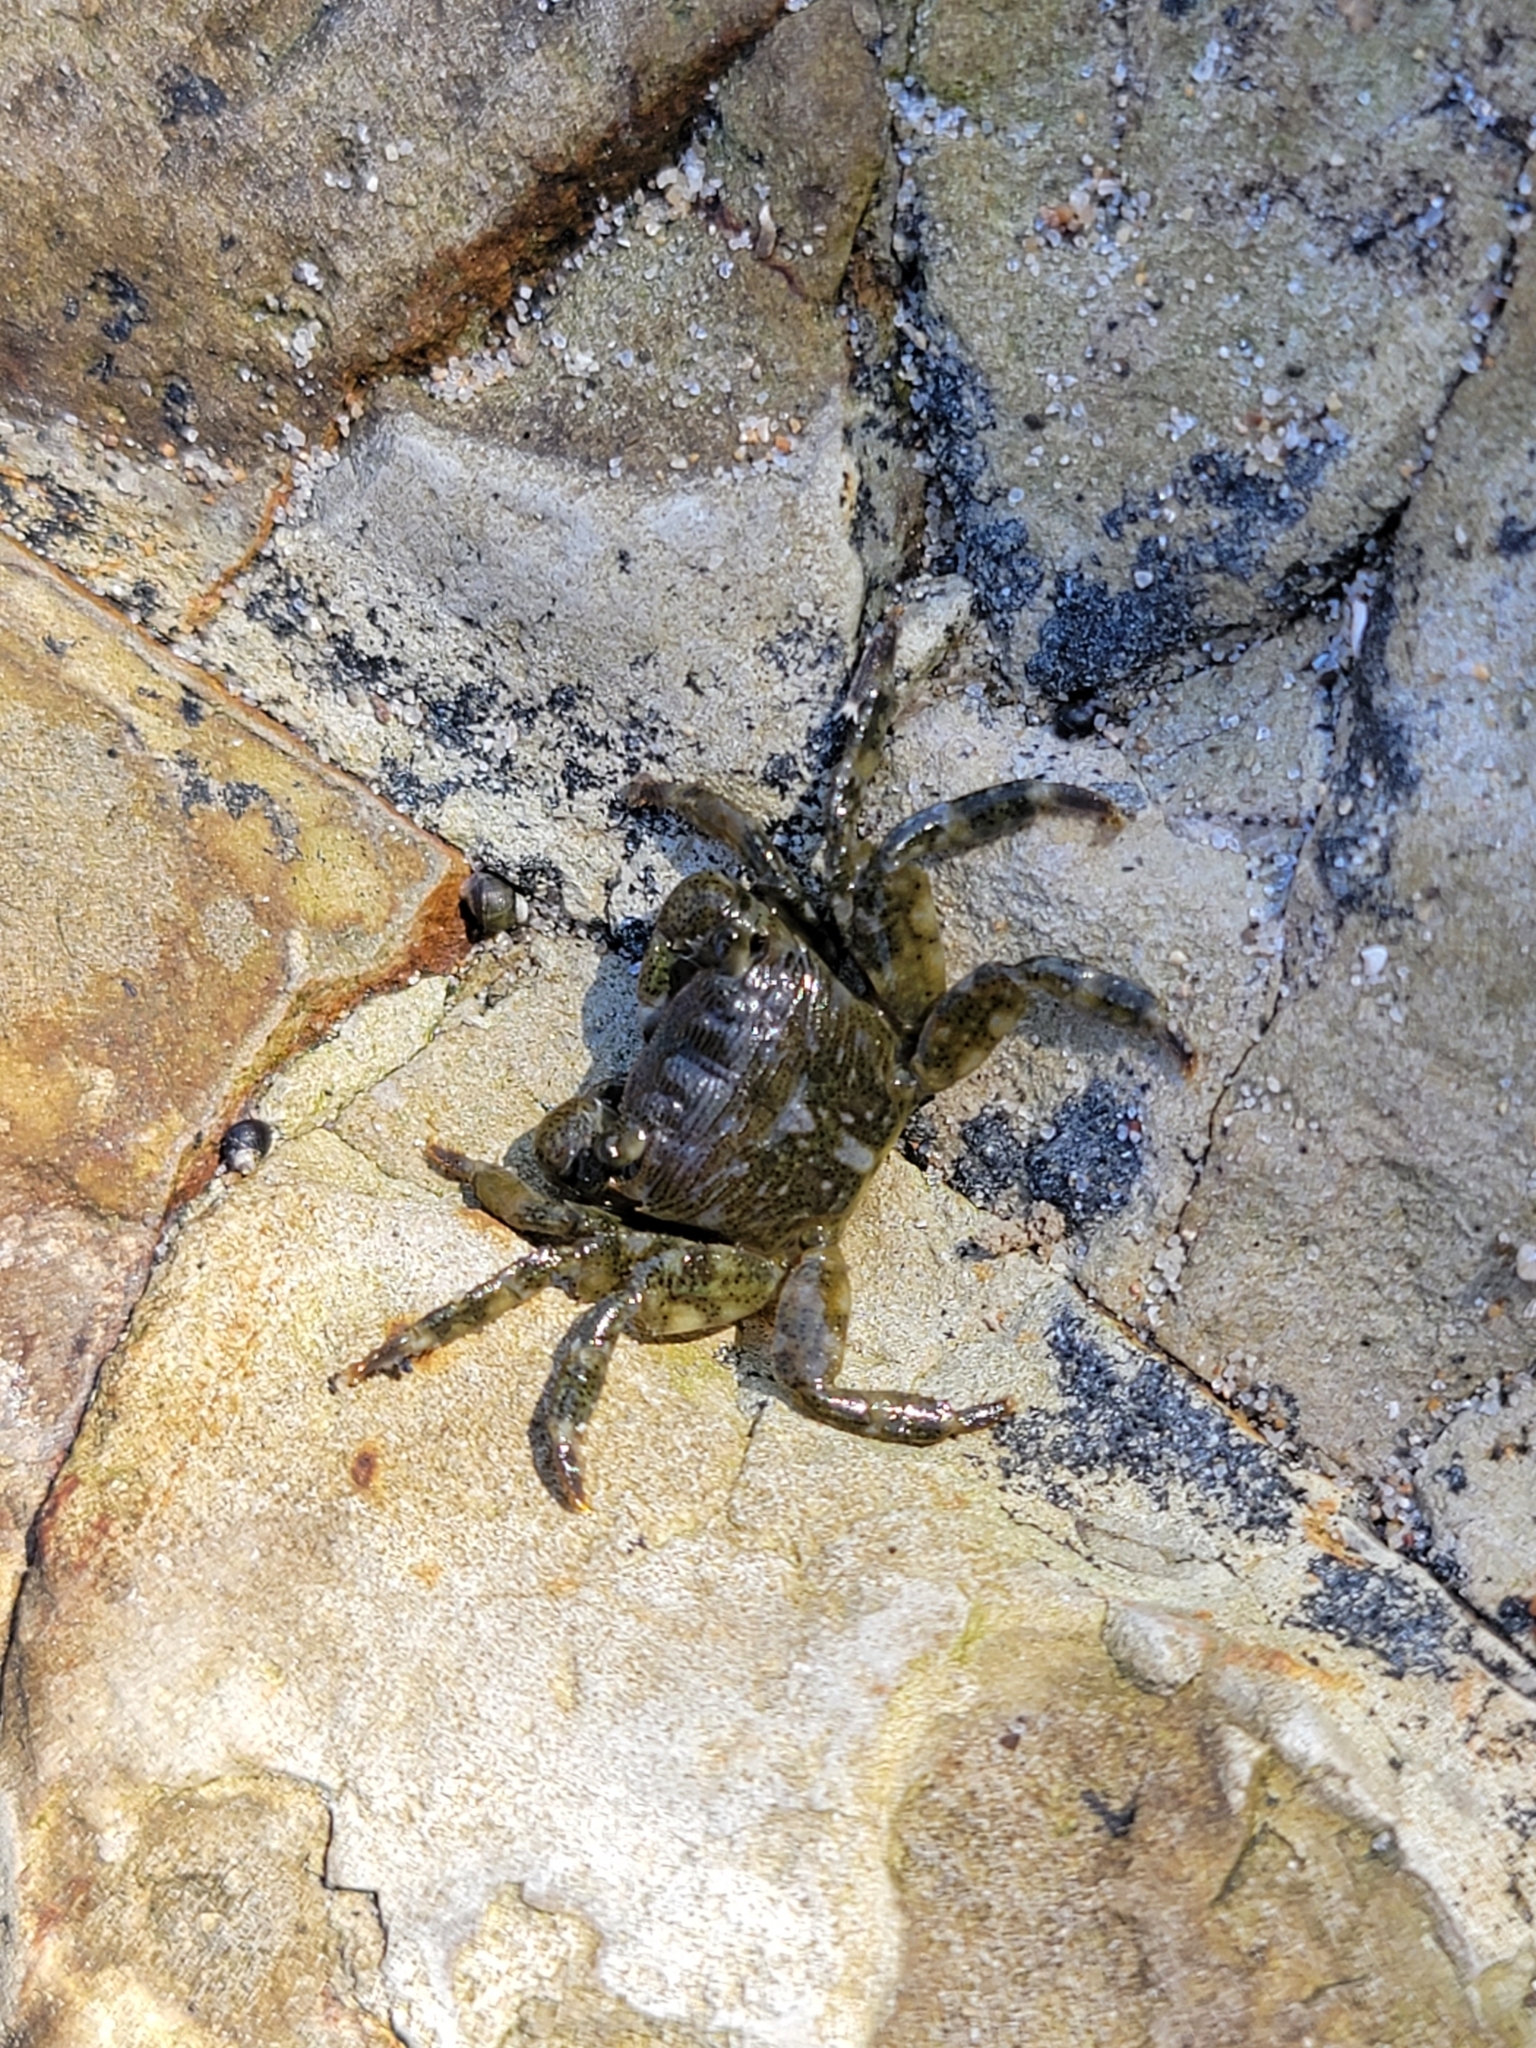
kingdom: Animalia
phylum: Arthropoda
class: Malacostraca
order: Decapoda
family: Grapsidae
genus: Pachygrapsus
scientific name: Pachygrapsus crassipes
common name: Striped shore crab
